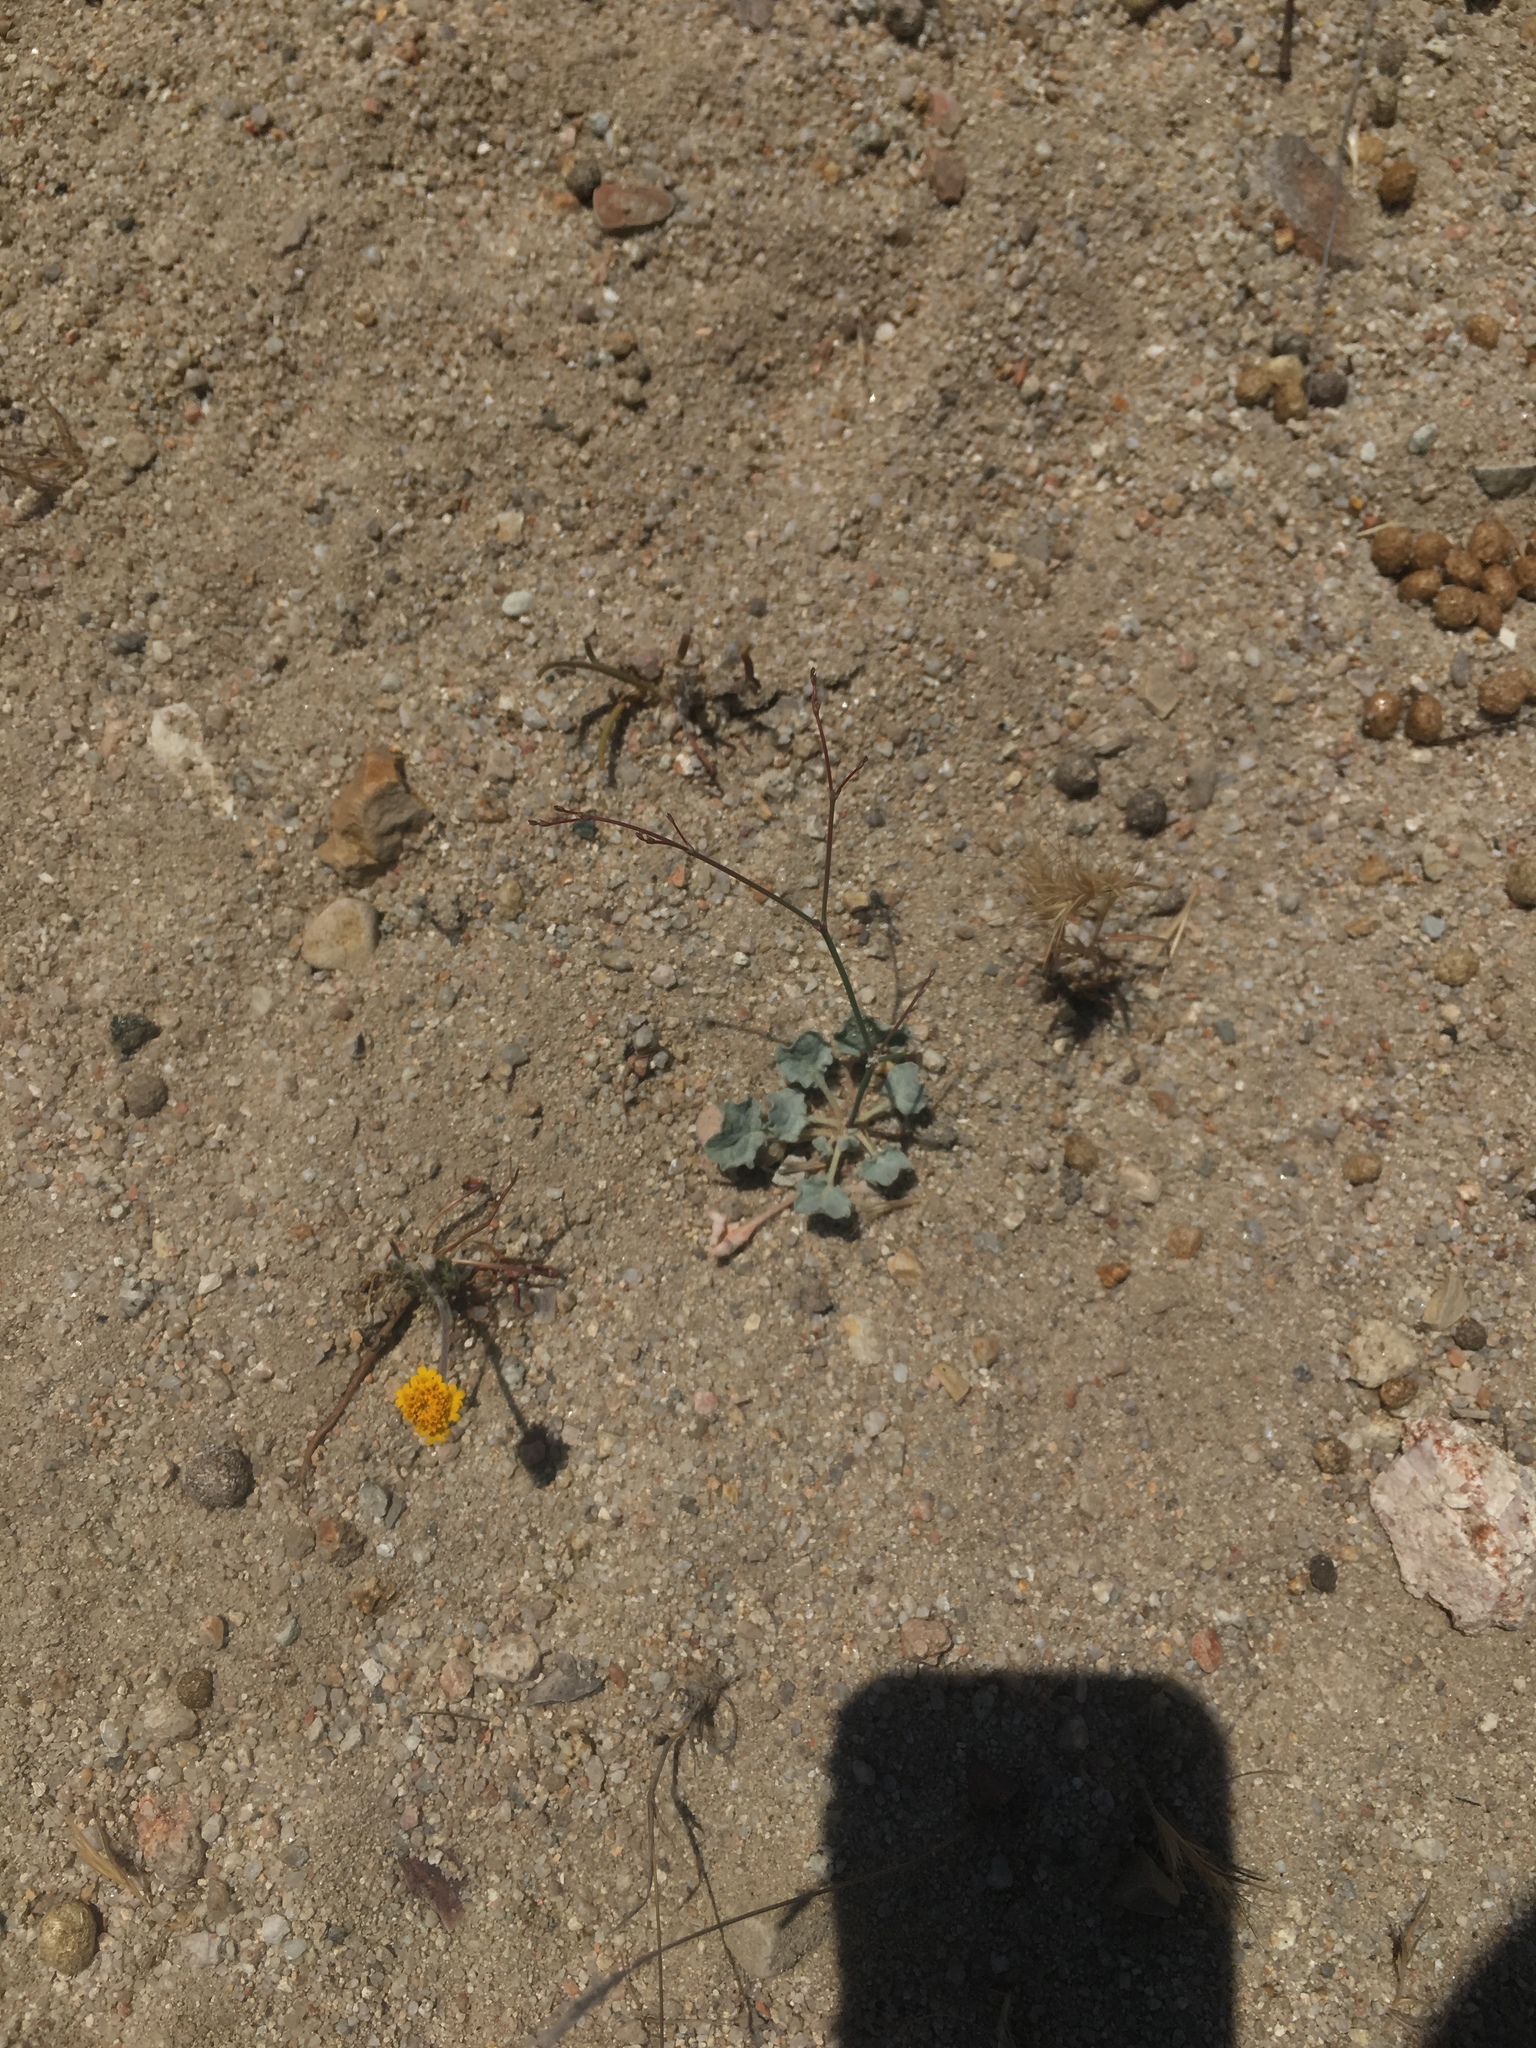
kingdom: Plantae
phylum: Tracheophyta
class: Magnoliopsida
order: Caryophyllales
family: Polygonaceae
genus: Eriogonum
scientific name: Eriogonum elegans
